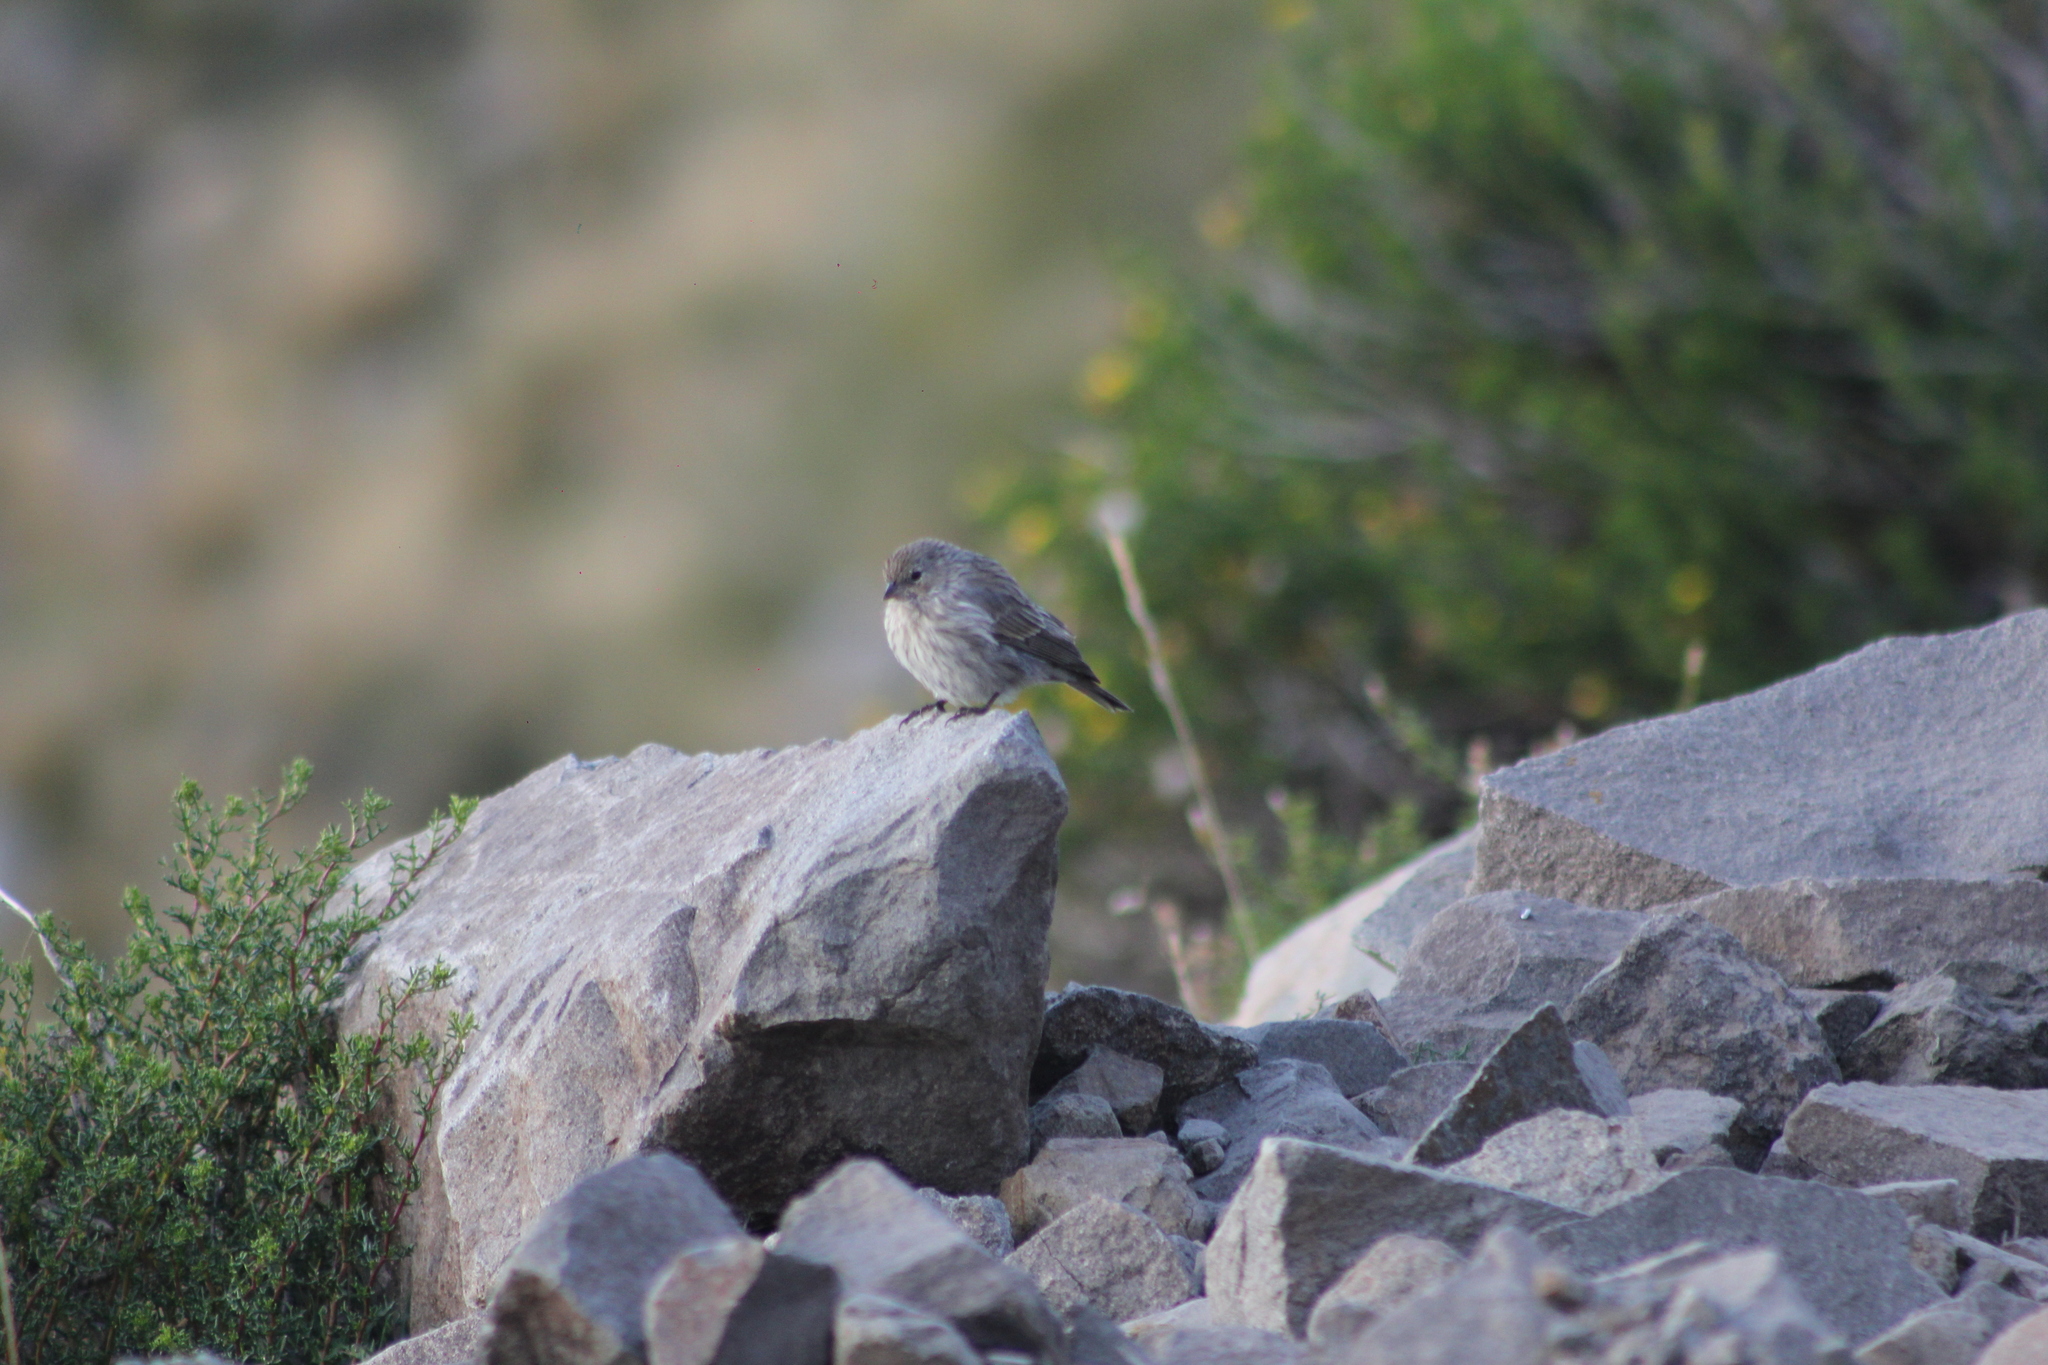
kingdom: Animalia
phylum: Chordata
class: Aves
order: Passeriformes
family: Thraupidae
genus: Geospizopsis
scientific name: Geospizopsis plebejus
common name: Ash-breasted sierra-finch
